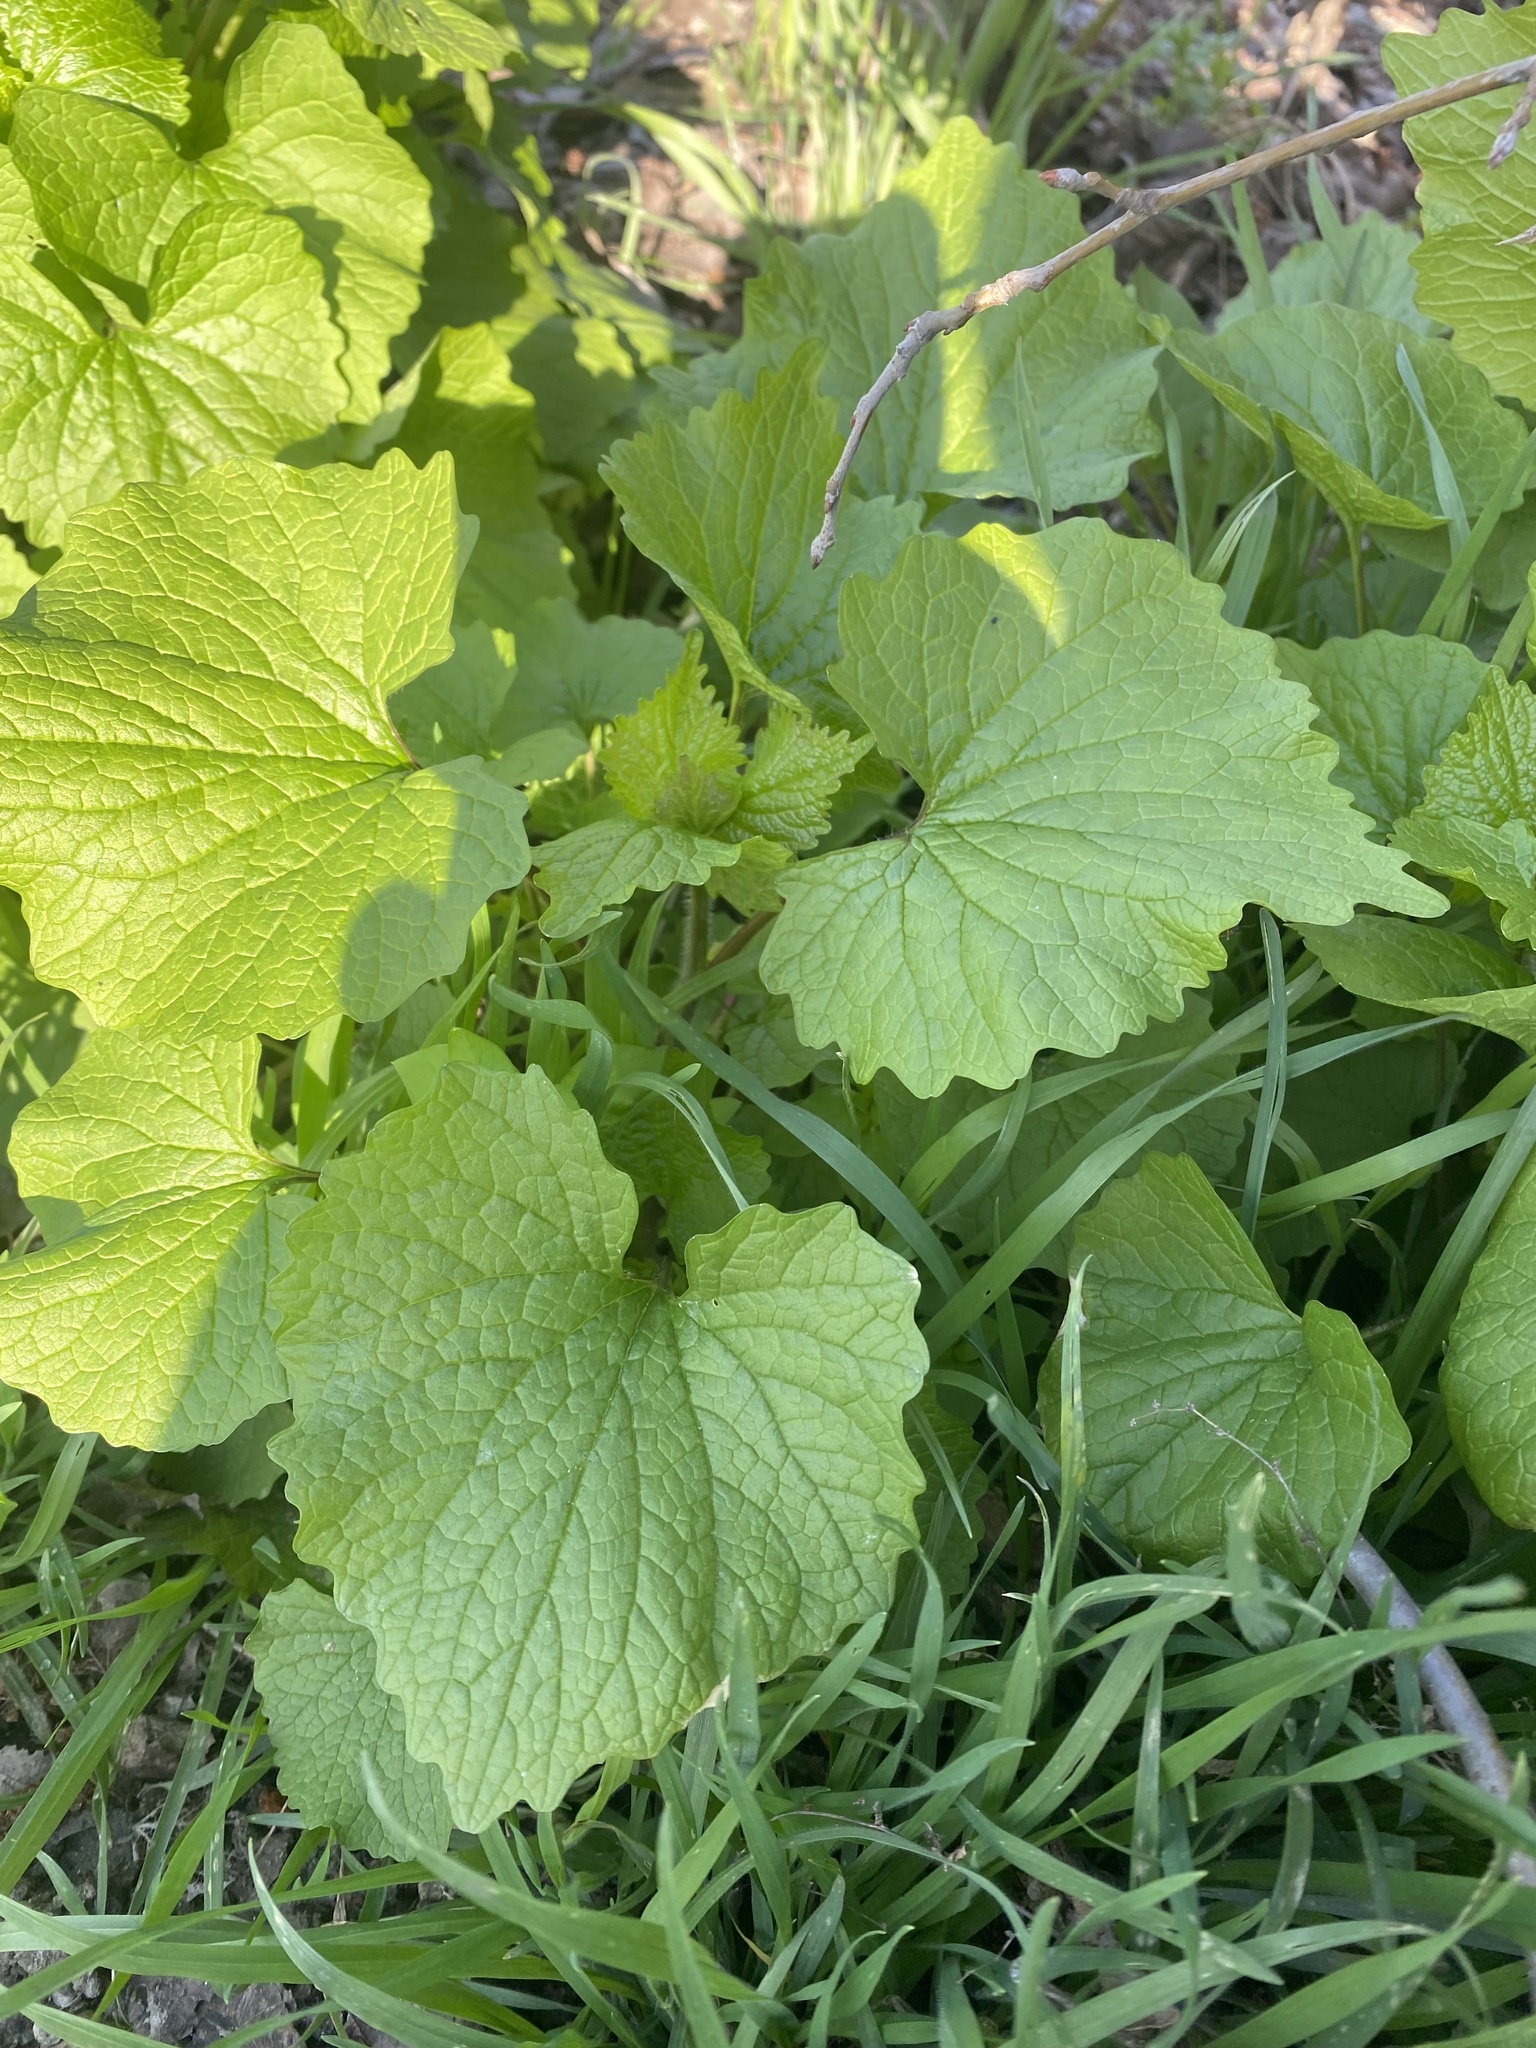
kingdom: Plantae
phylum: Tracheophyta
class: Magnoliopsida
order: Brassicales
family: Brassicaceae
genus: Alliaria
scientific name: Alliaria petiolata
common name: Garlic mustard
